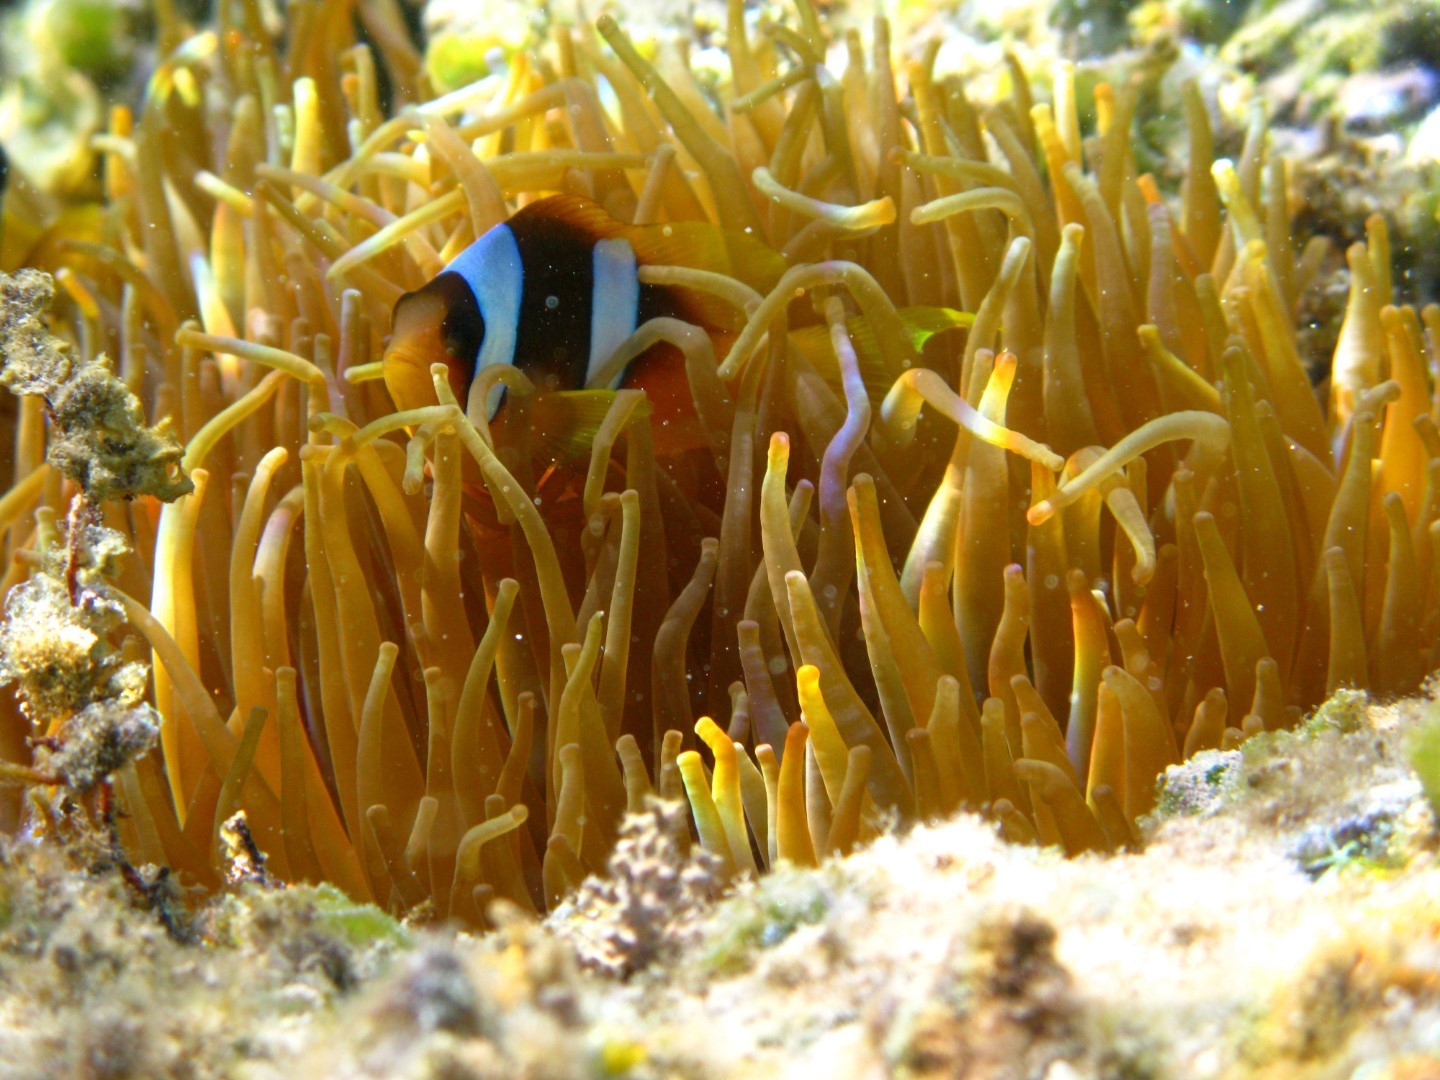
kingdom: Animalia
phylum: Chordata
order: Perciformes
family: Pomacentridae
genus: Amphiprion
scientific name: Amphiprion bicinctus
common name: Two-banded anemonefish
